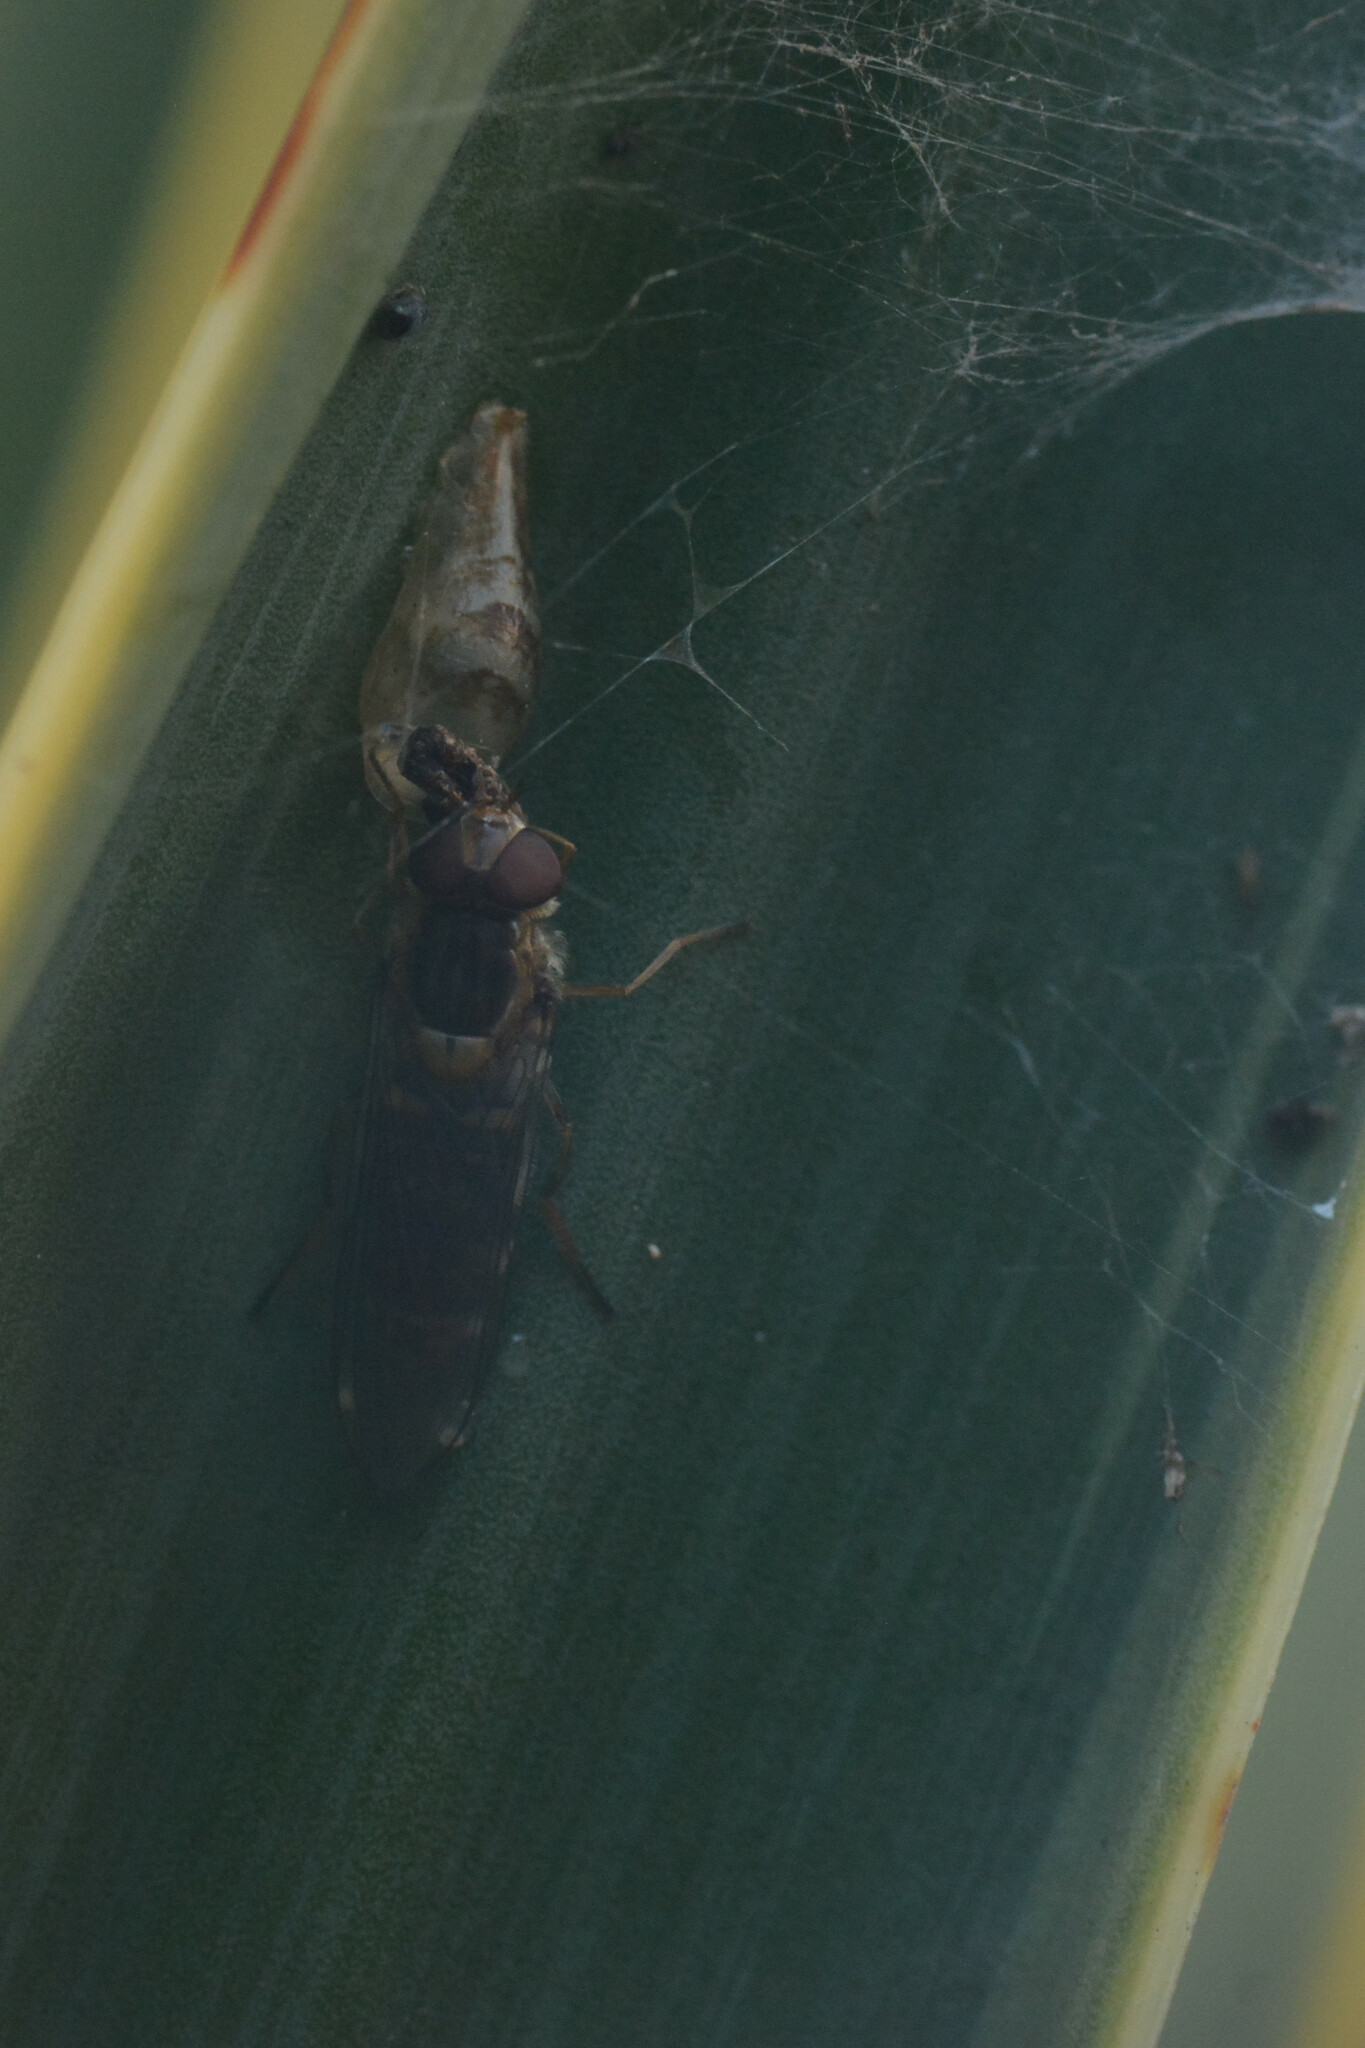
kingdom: Animalia
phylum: Arthropoda
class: Insecta
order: Diptera
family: Syrphidae
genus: Episyrphus
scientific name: Episyrphus balteatus
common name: Marmalade hoverfly
